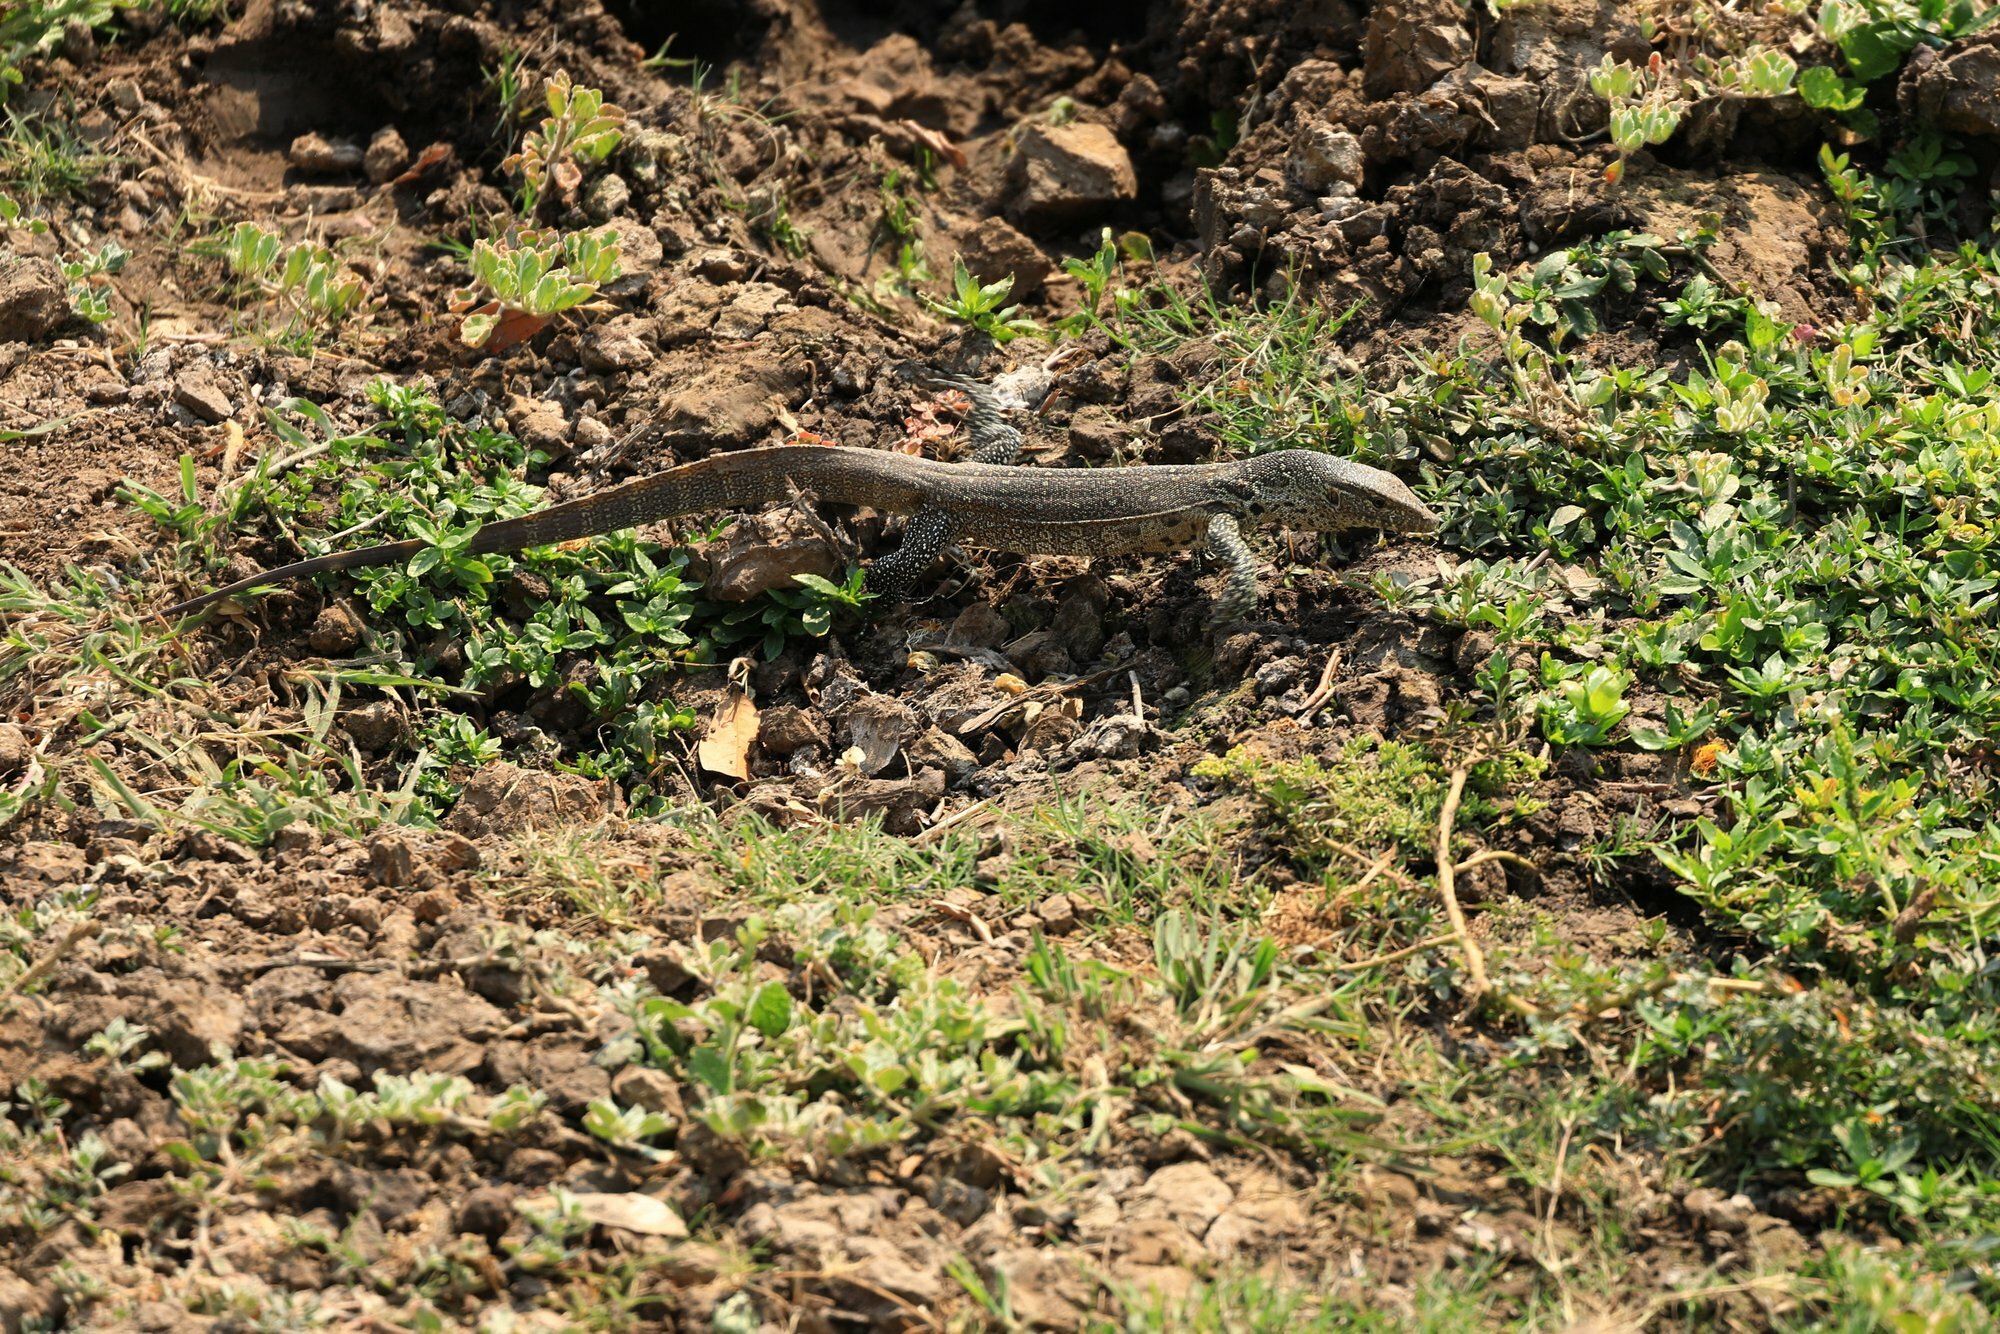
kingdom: Animalia
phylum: Chordata
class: Squamata
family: Varanidae
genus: Varanus
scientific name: Varanus niloticus
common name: Nile monitor
